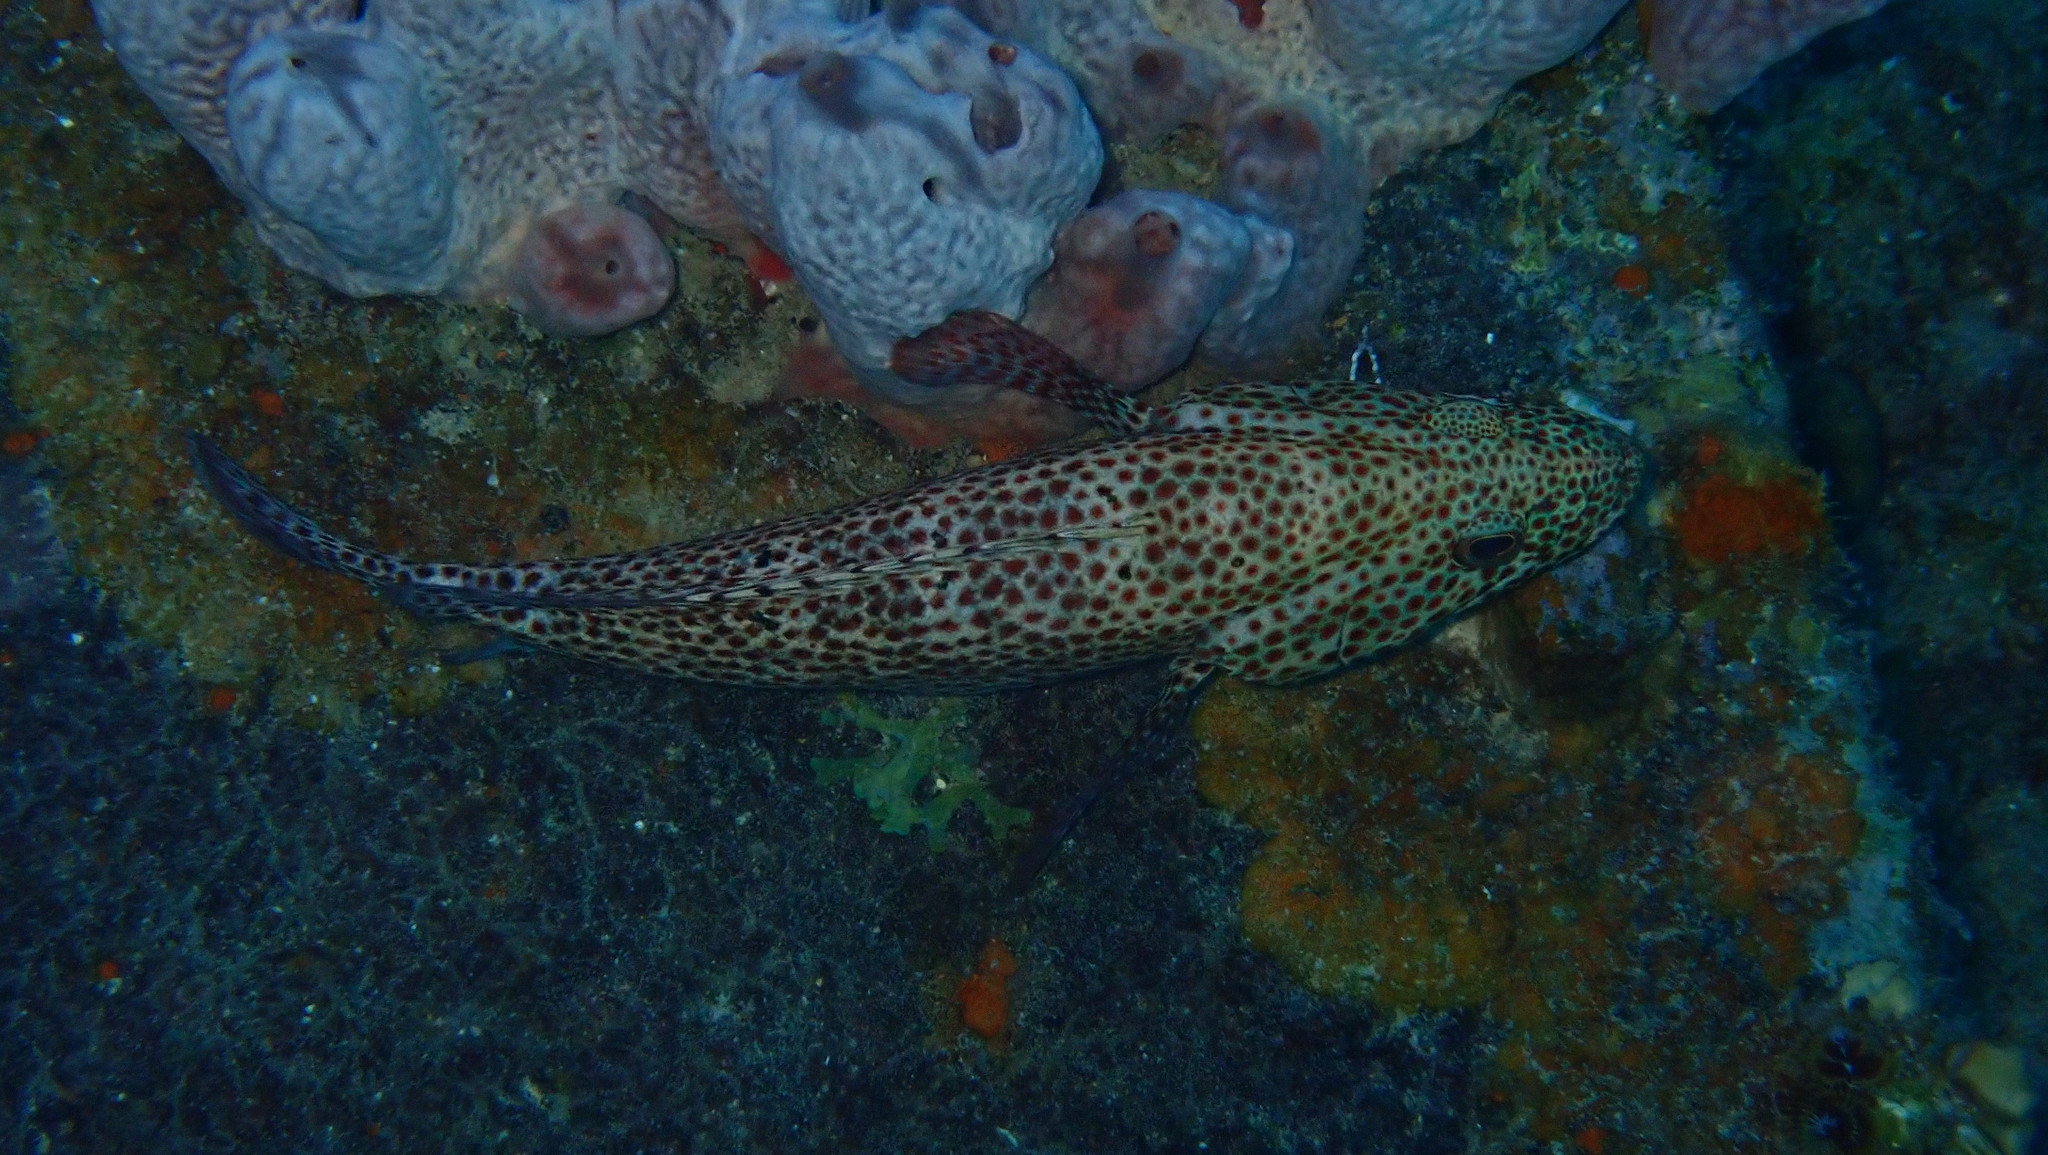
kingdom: Animalia
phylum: Chordata
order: Perciformes
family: Serranidae
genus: Cephalopholis
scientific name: Cephalopholis cruentata
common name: Graysby
